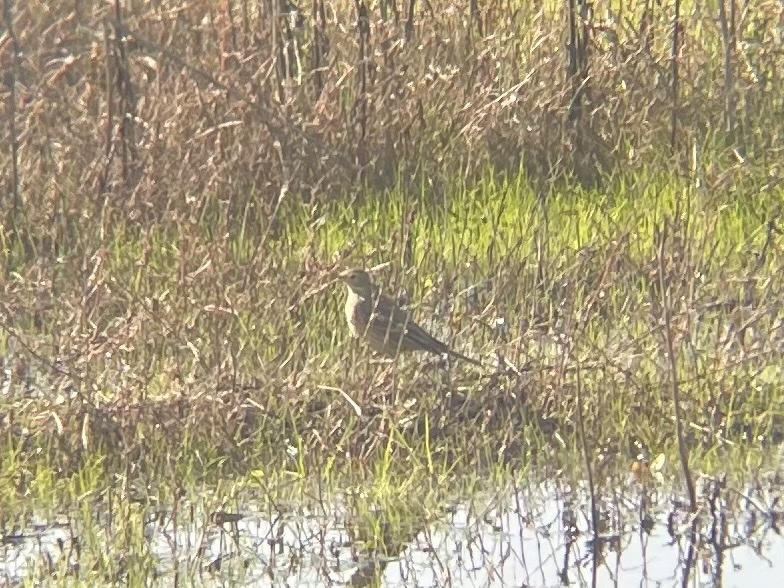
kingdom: Animalia
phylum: Chordata
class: Aves
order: Passeriformes
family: Motacillidae
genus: Anthus
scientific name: Anthus rubescens
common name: Buff-bellied pipit
